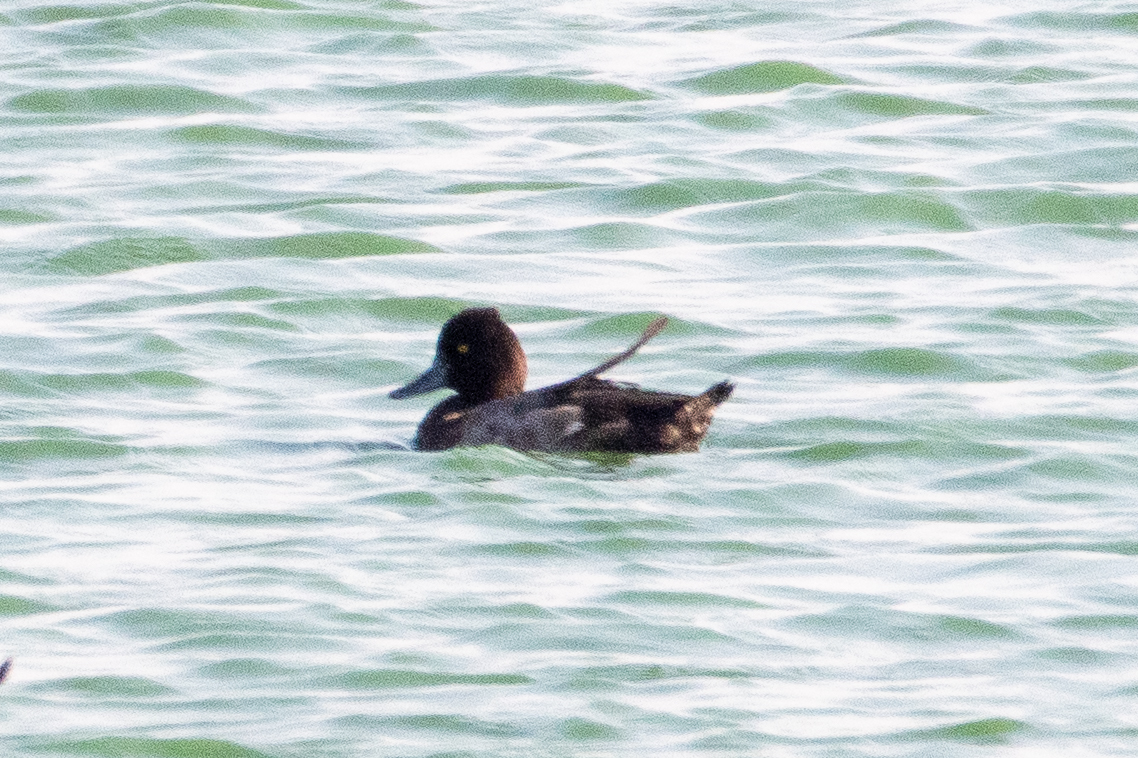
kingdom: Animalia
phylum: Chordata
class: Aves
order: Anseriformes
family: Anatidae
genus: Aythya
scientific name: Aythya affinis
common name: Lesser scaup
